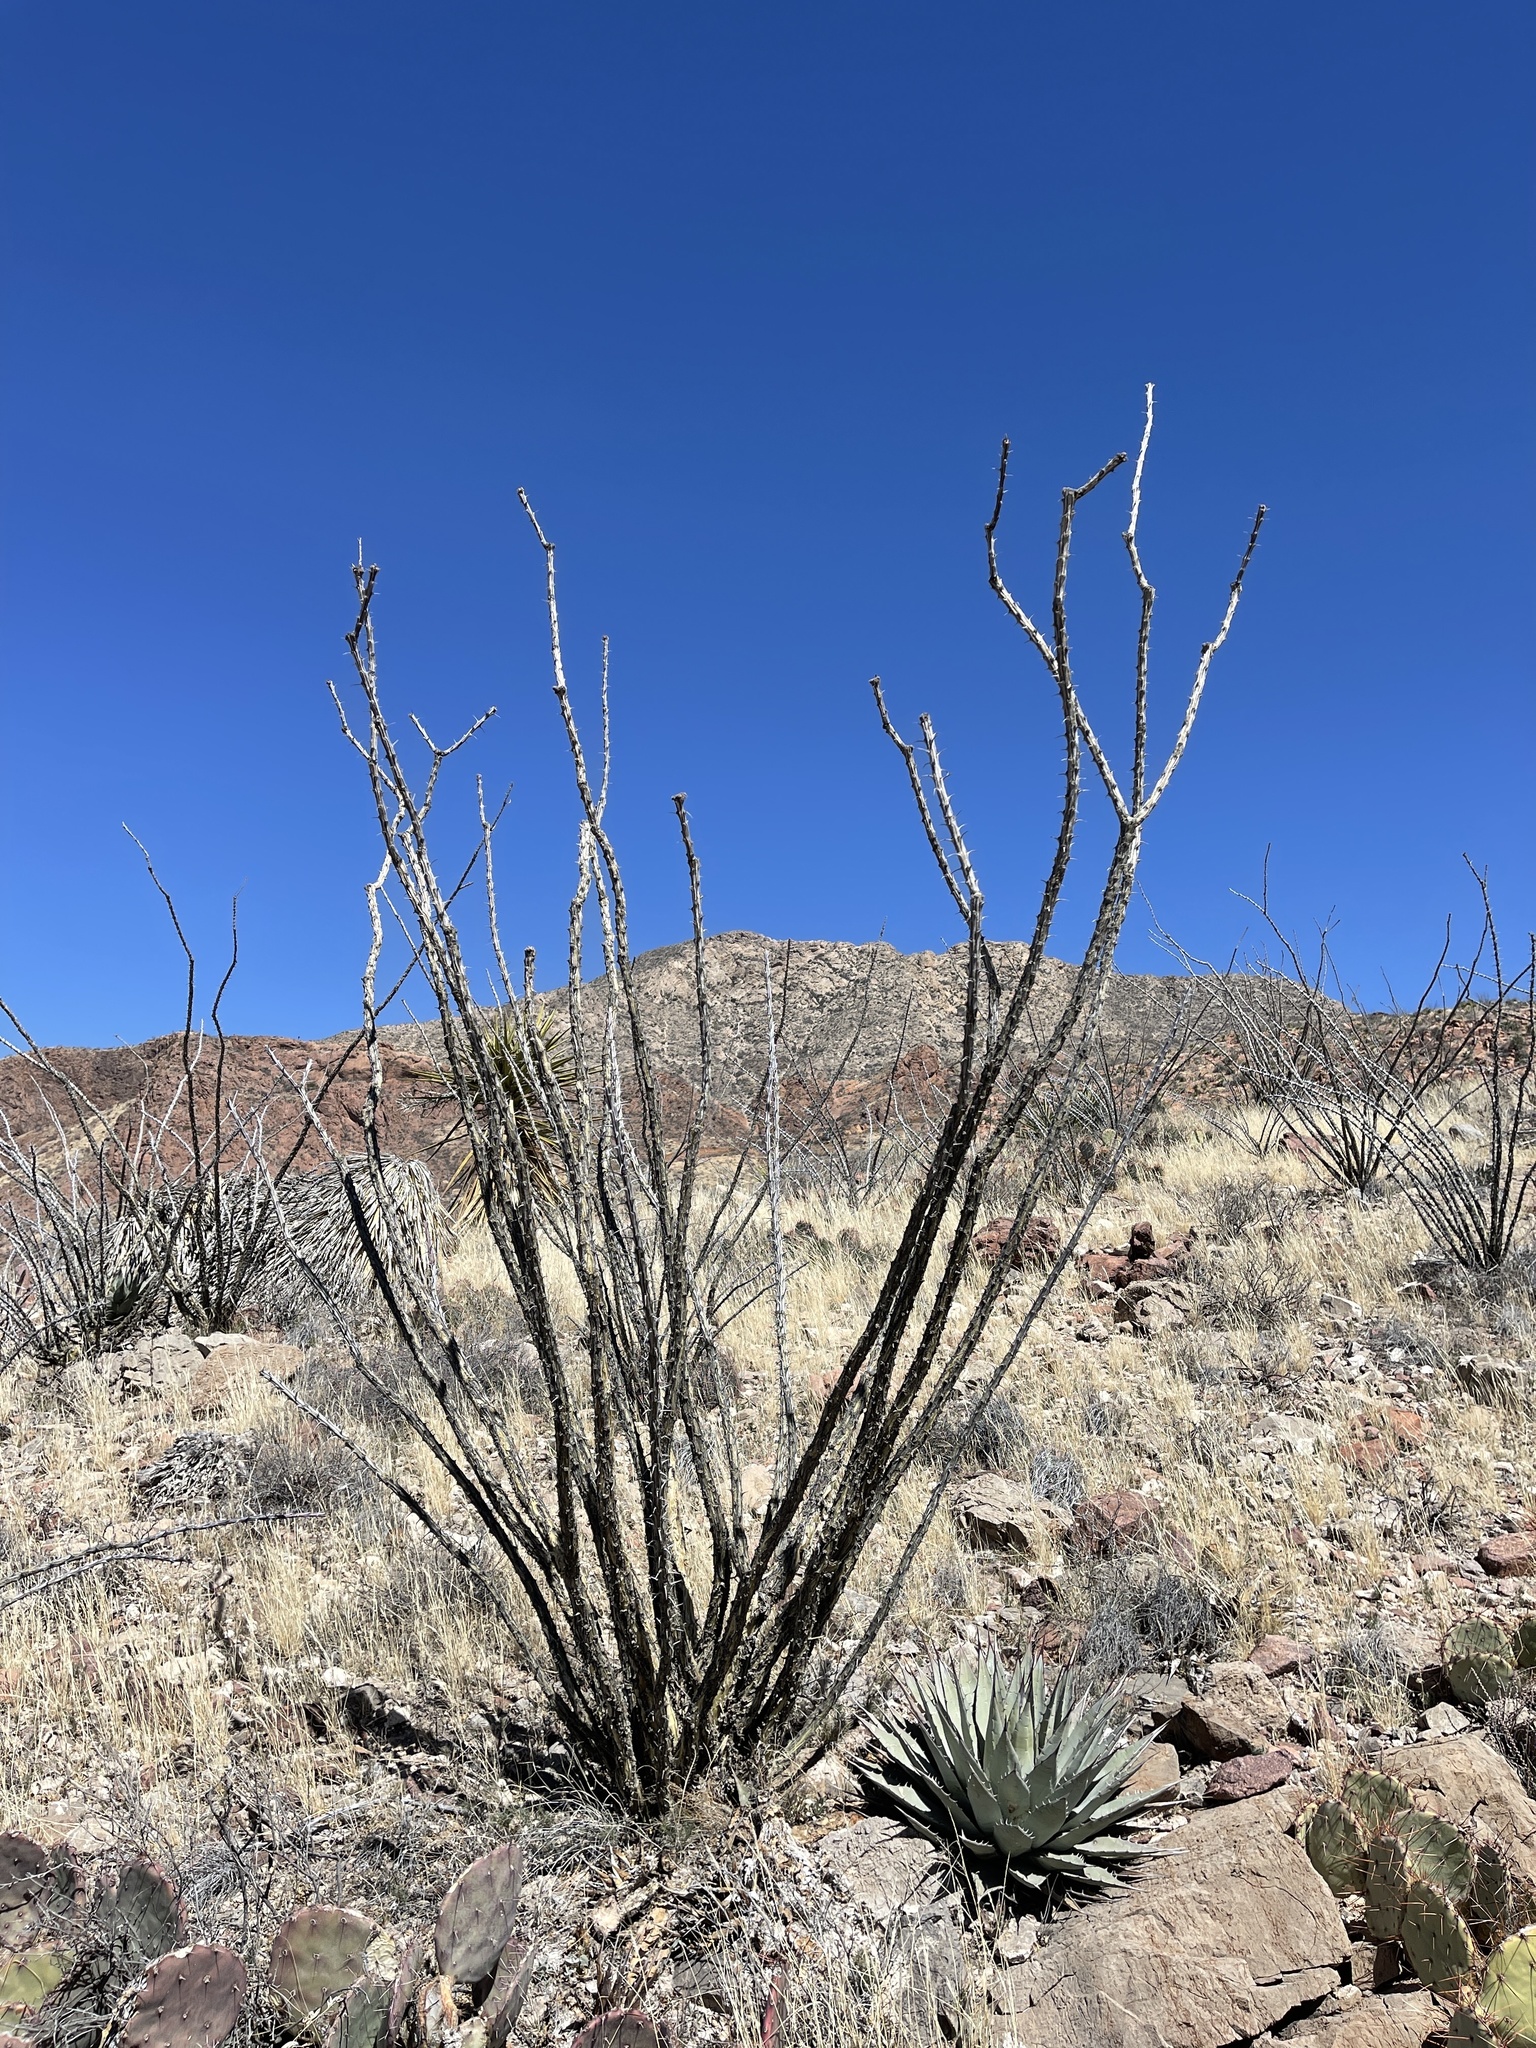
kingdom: Plantae
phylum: Tracheophyta
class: Magnoliopsida
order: Ericales
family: Fouquieriaceae
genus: Fouquieria
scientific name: Fouquieria splendens
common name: Vine-cactus
